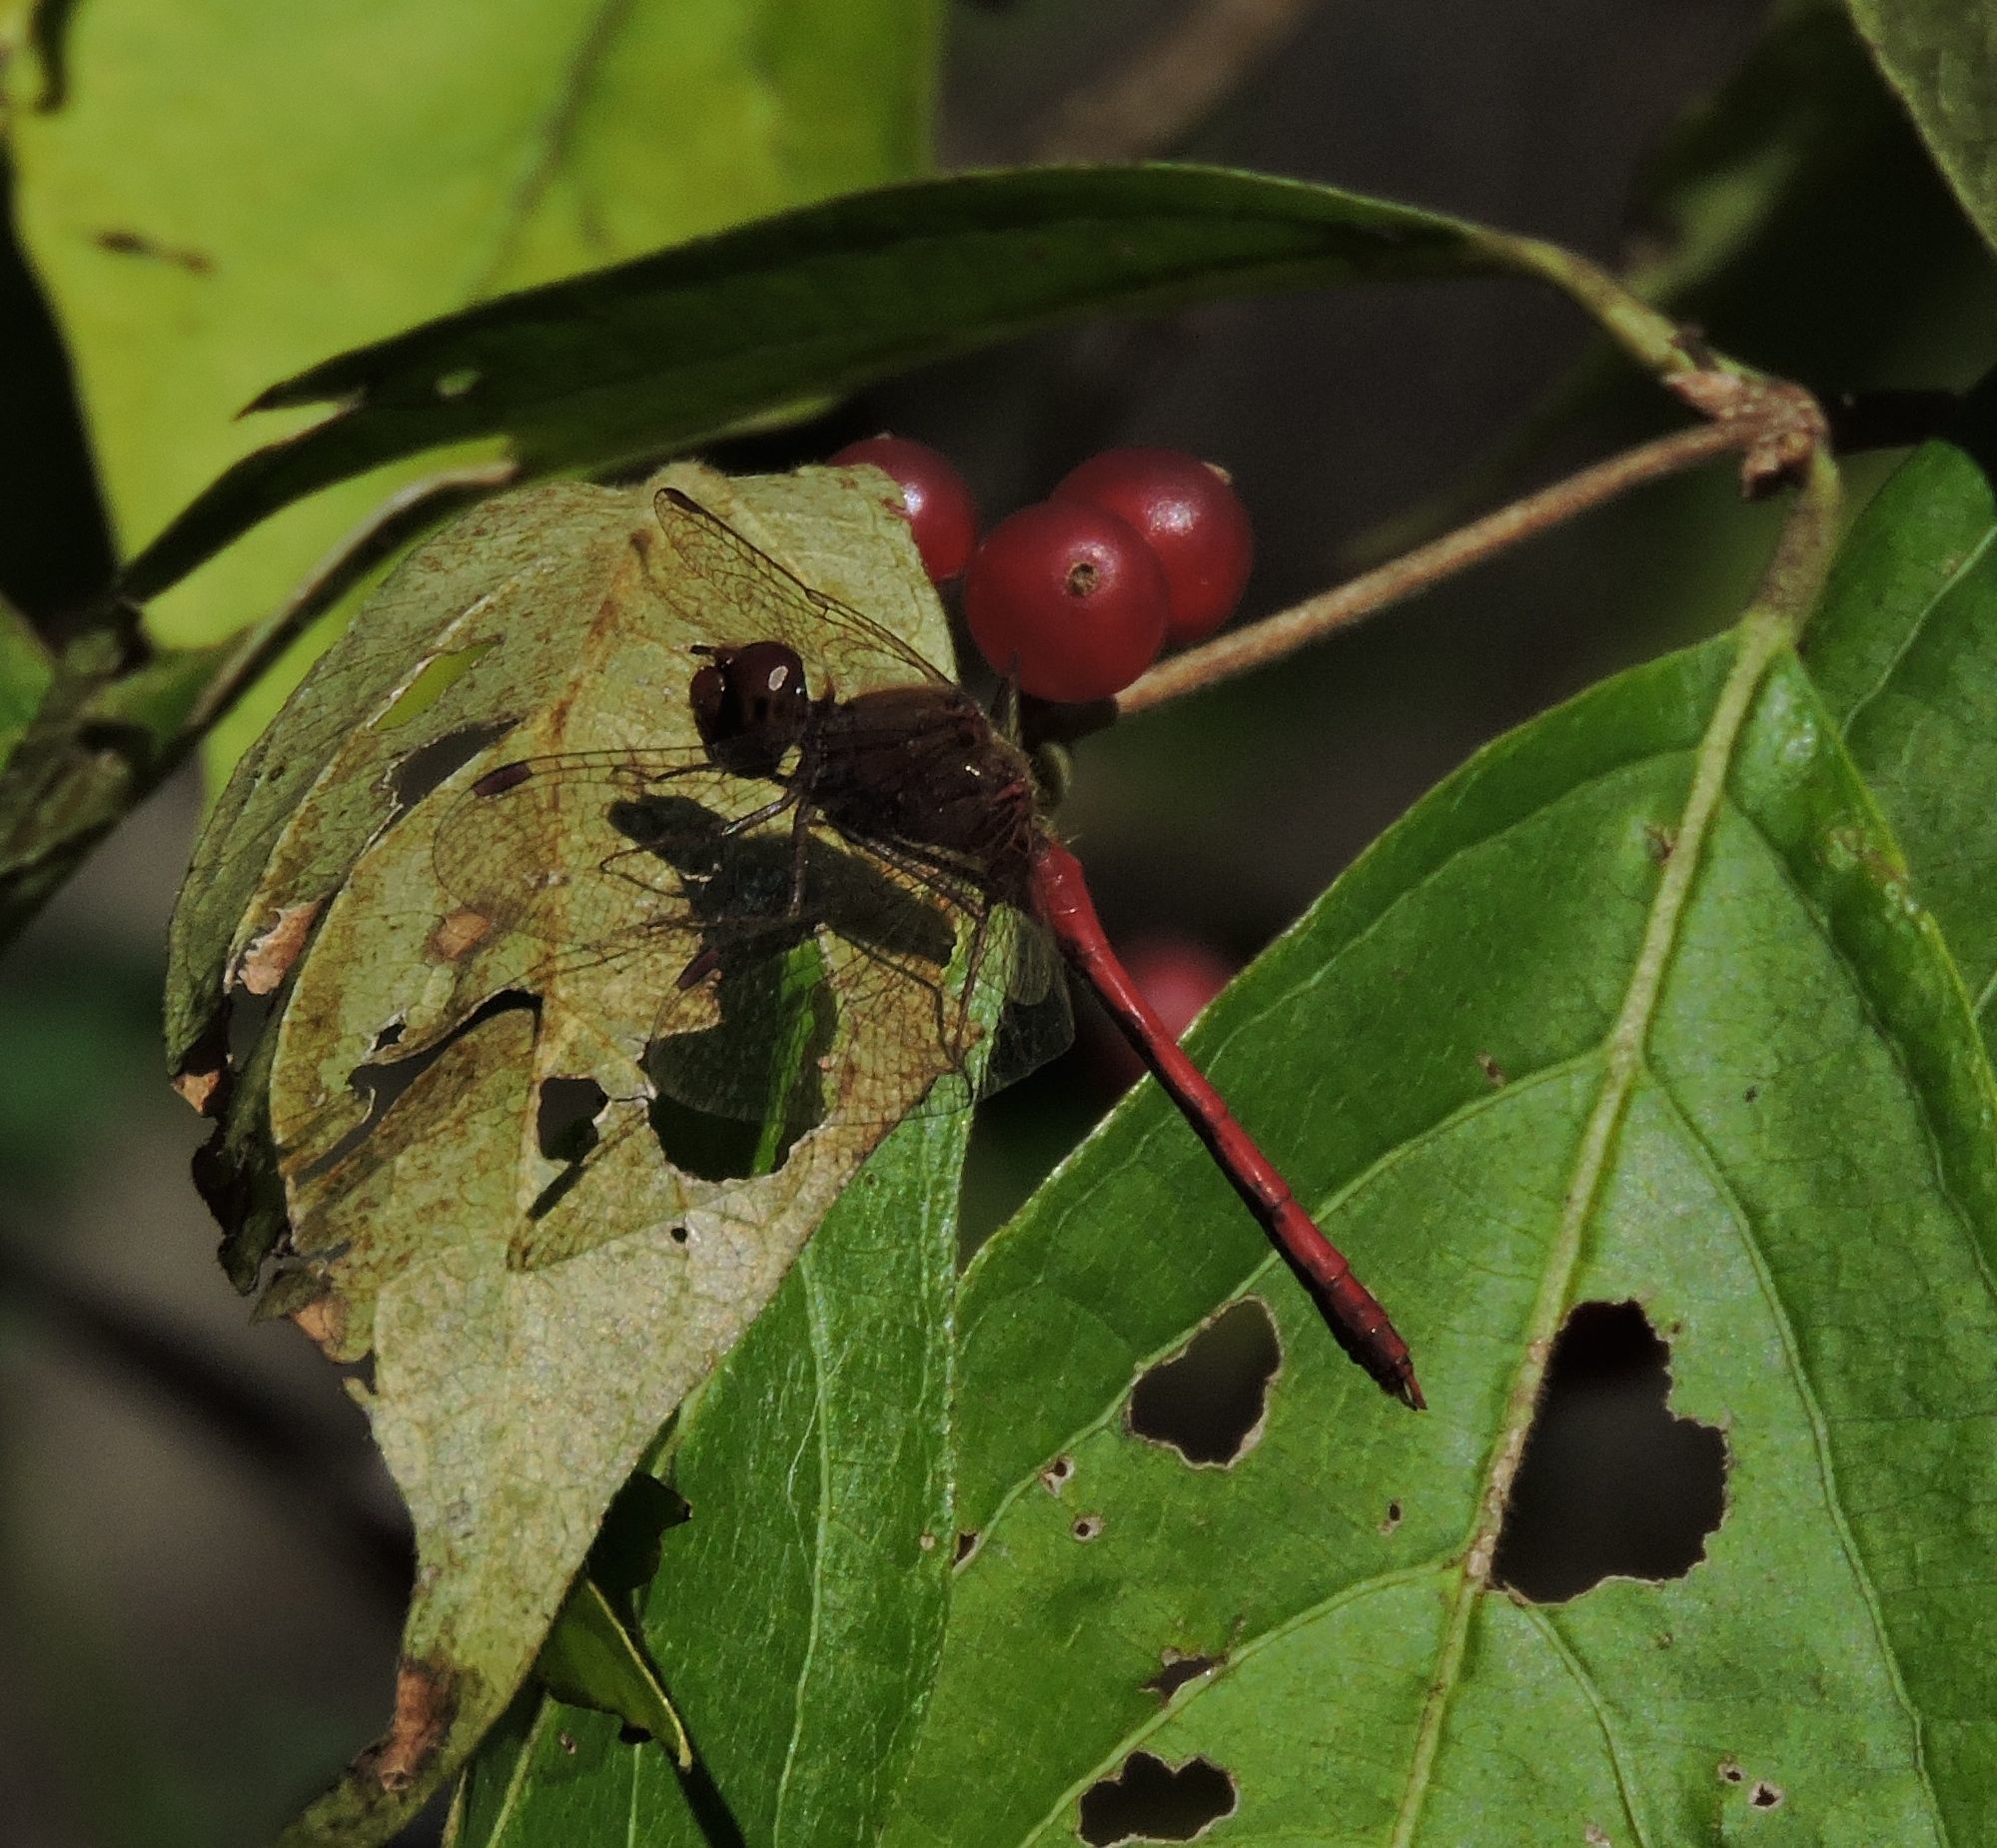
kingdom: Animalia
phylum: Arthropoda
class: Insecta
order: Odonata
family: Libellulidae
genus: Sympetrum
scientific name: Sympetrum vicinum
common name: Autumn meadowhawk
